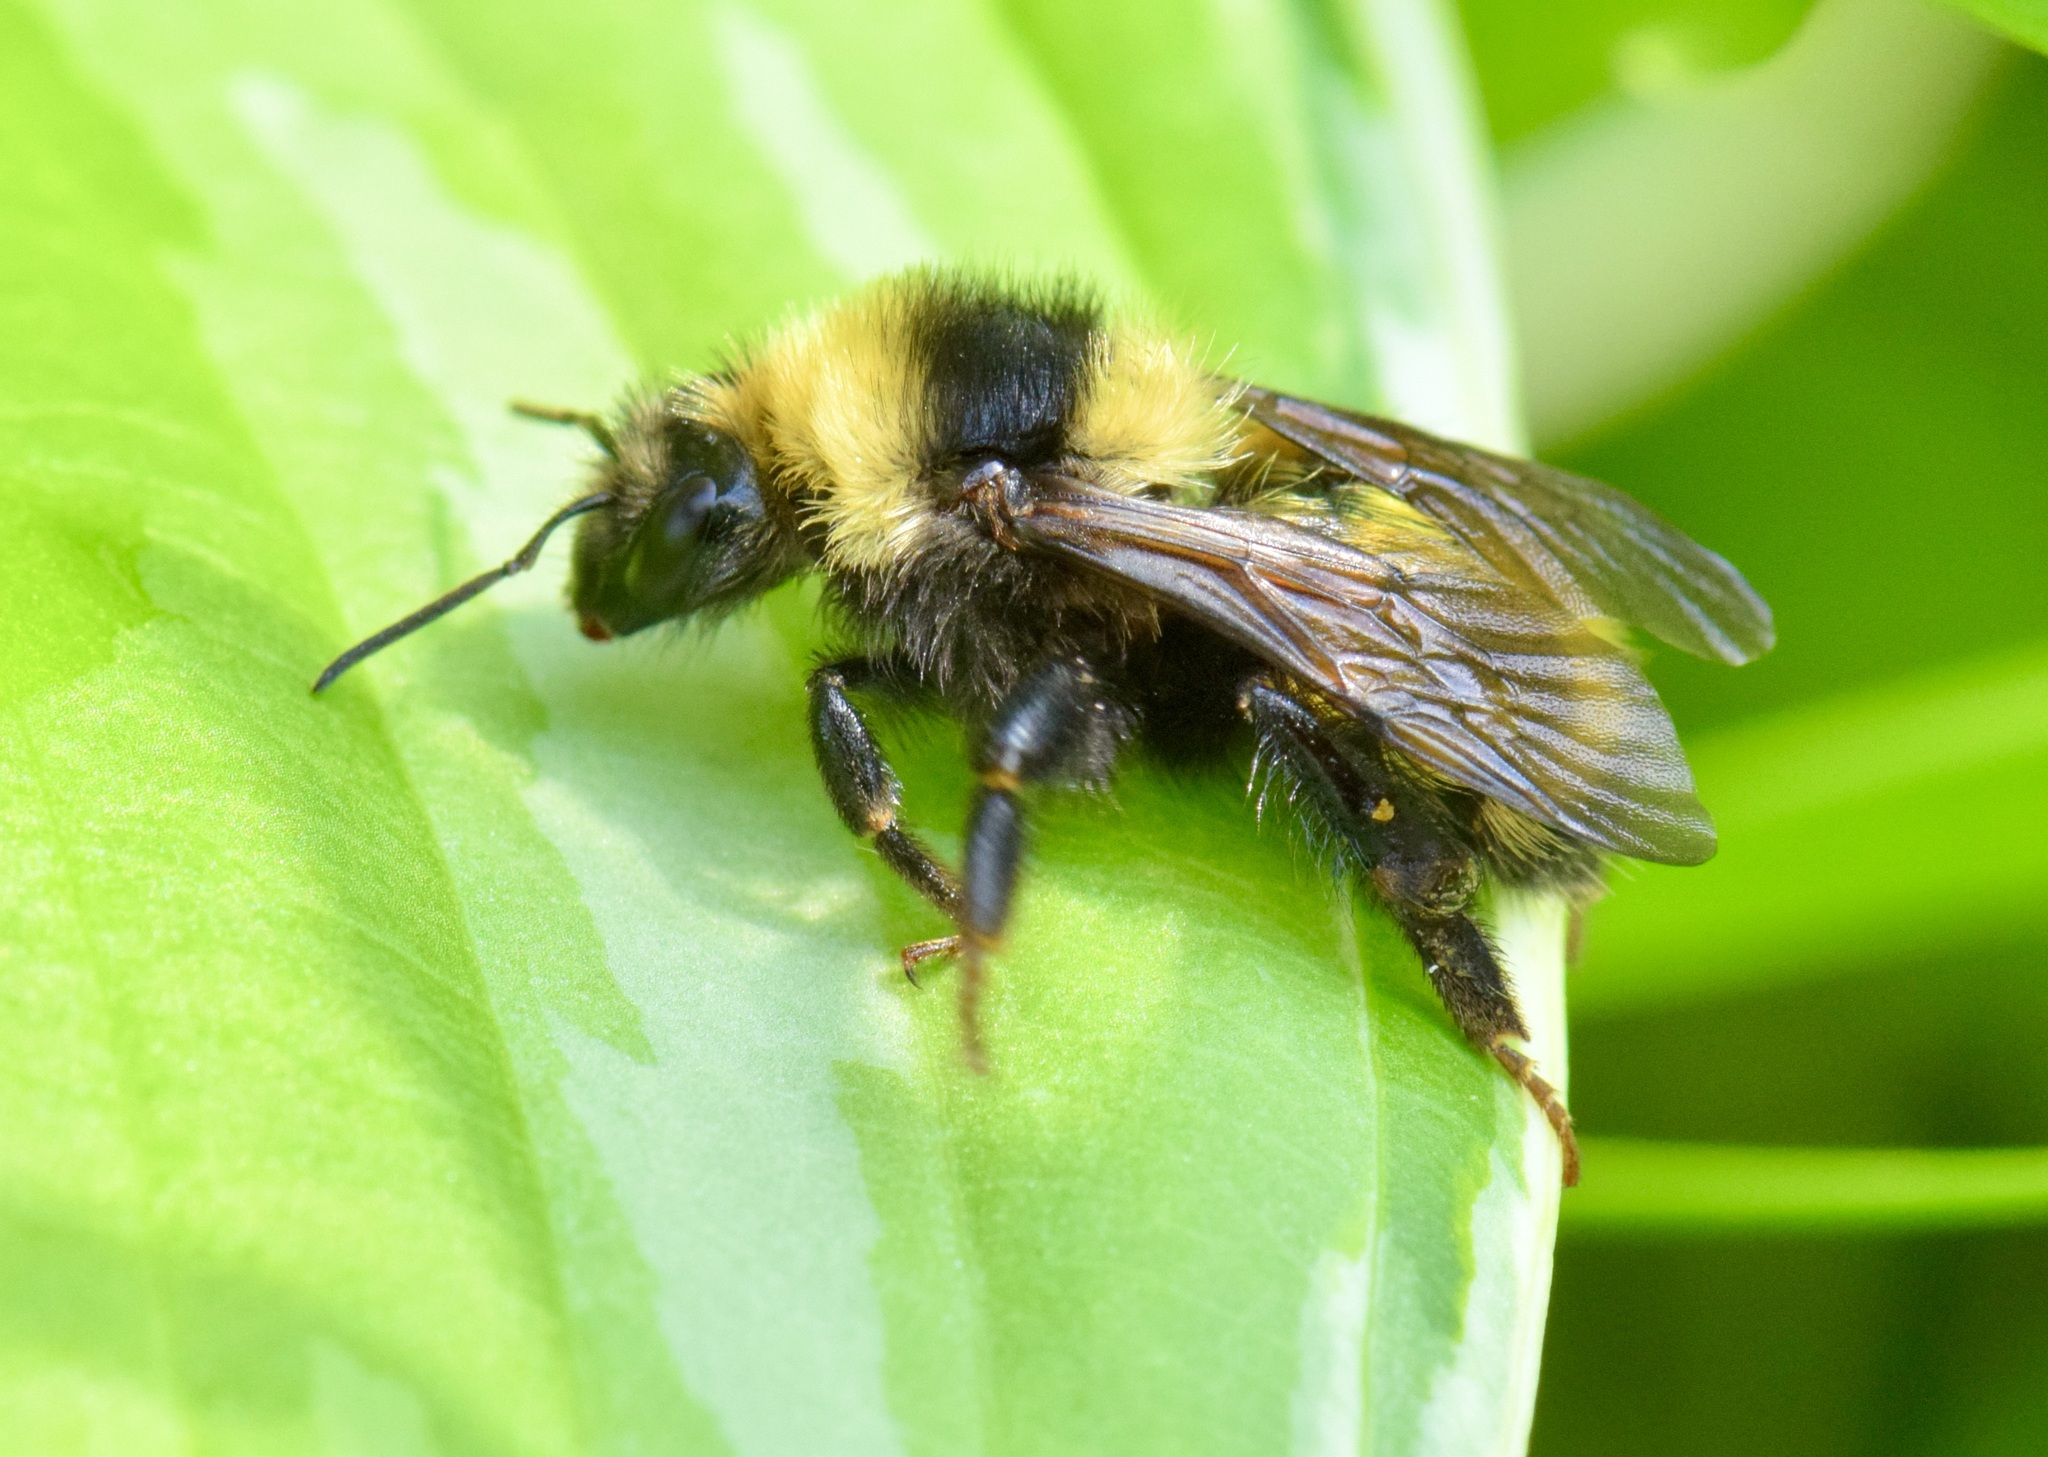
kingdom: Animalia
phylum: Arthropoda
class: Insecta
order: Hymenoptera
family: Apidae
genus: Bombus
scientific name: Bombus borealis
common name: Northern amber bumble bee
